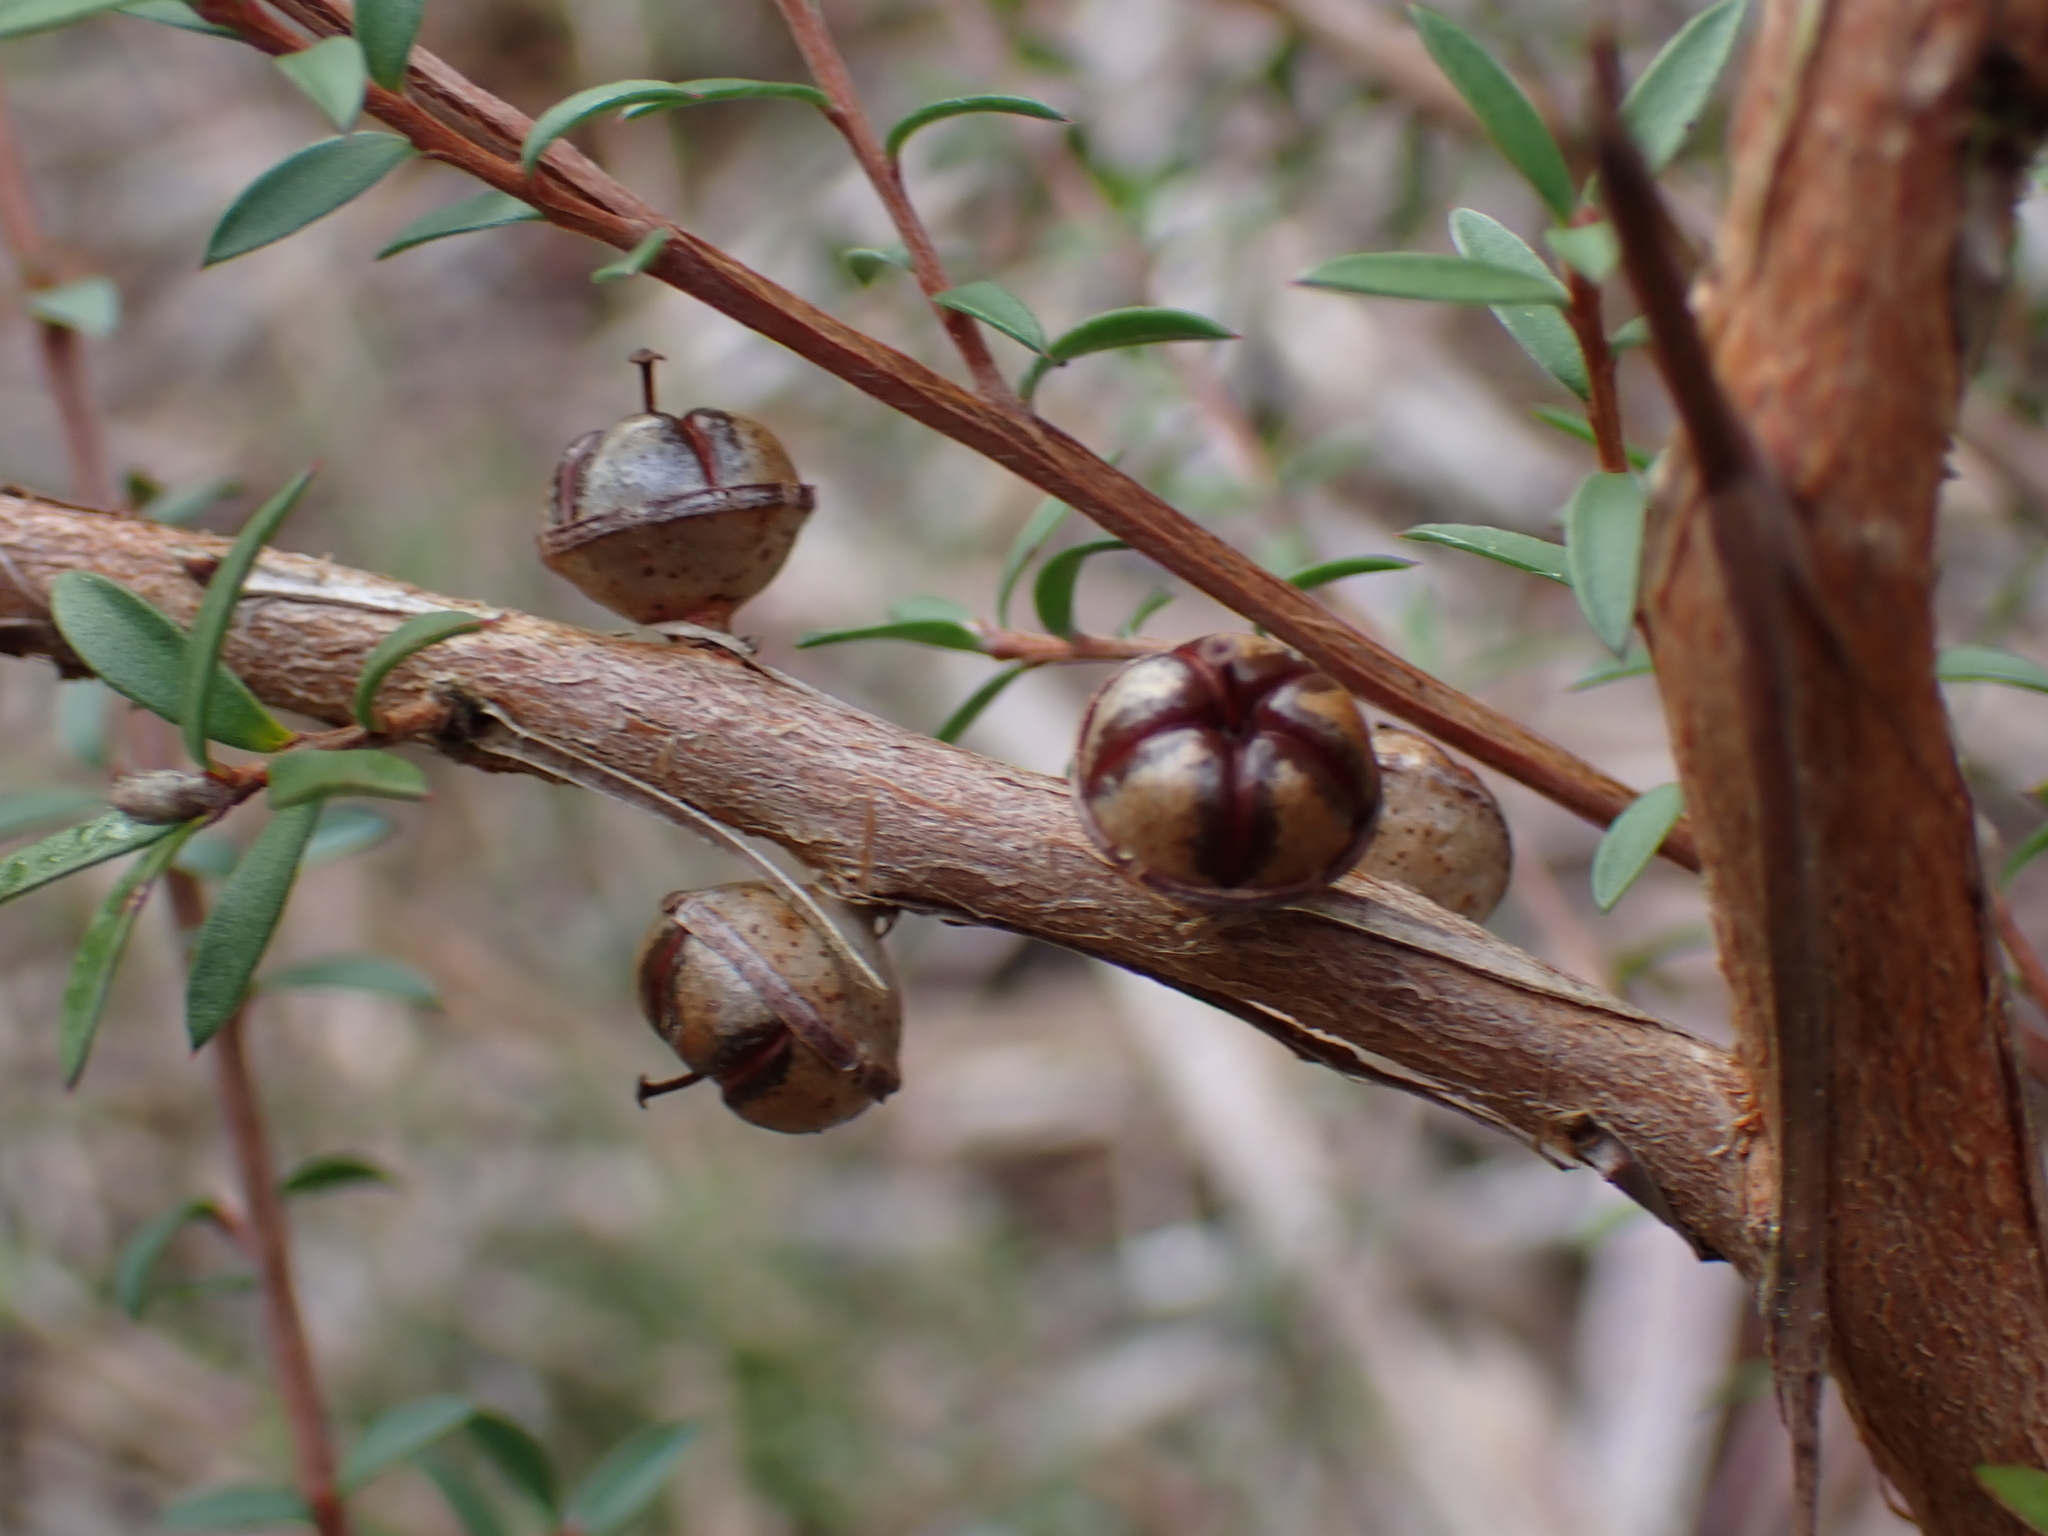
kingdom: Plantae
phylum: Tracheophyta
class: Magnoliopsida
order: Myrtales
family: Myrtaceae
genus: Leptospermum
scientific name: Leptospermum scoparium
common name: Broom tea-tree
